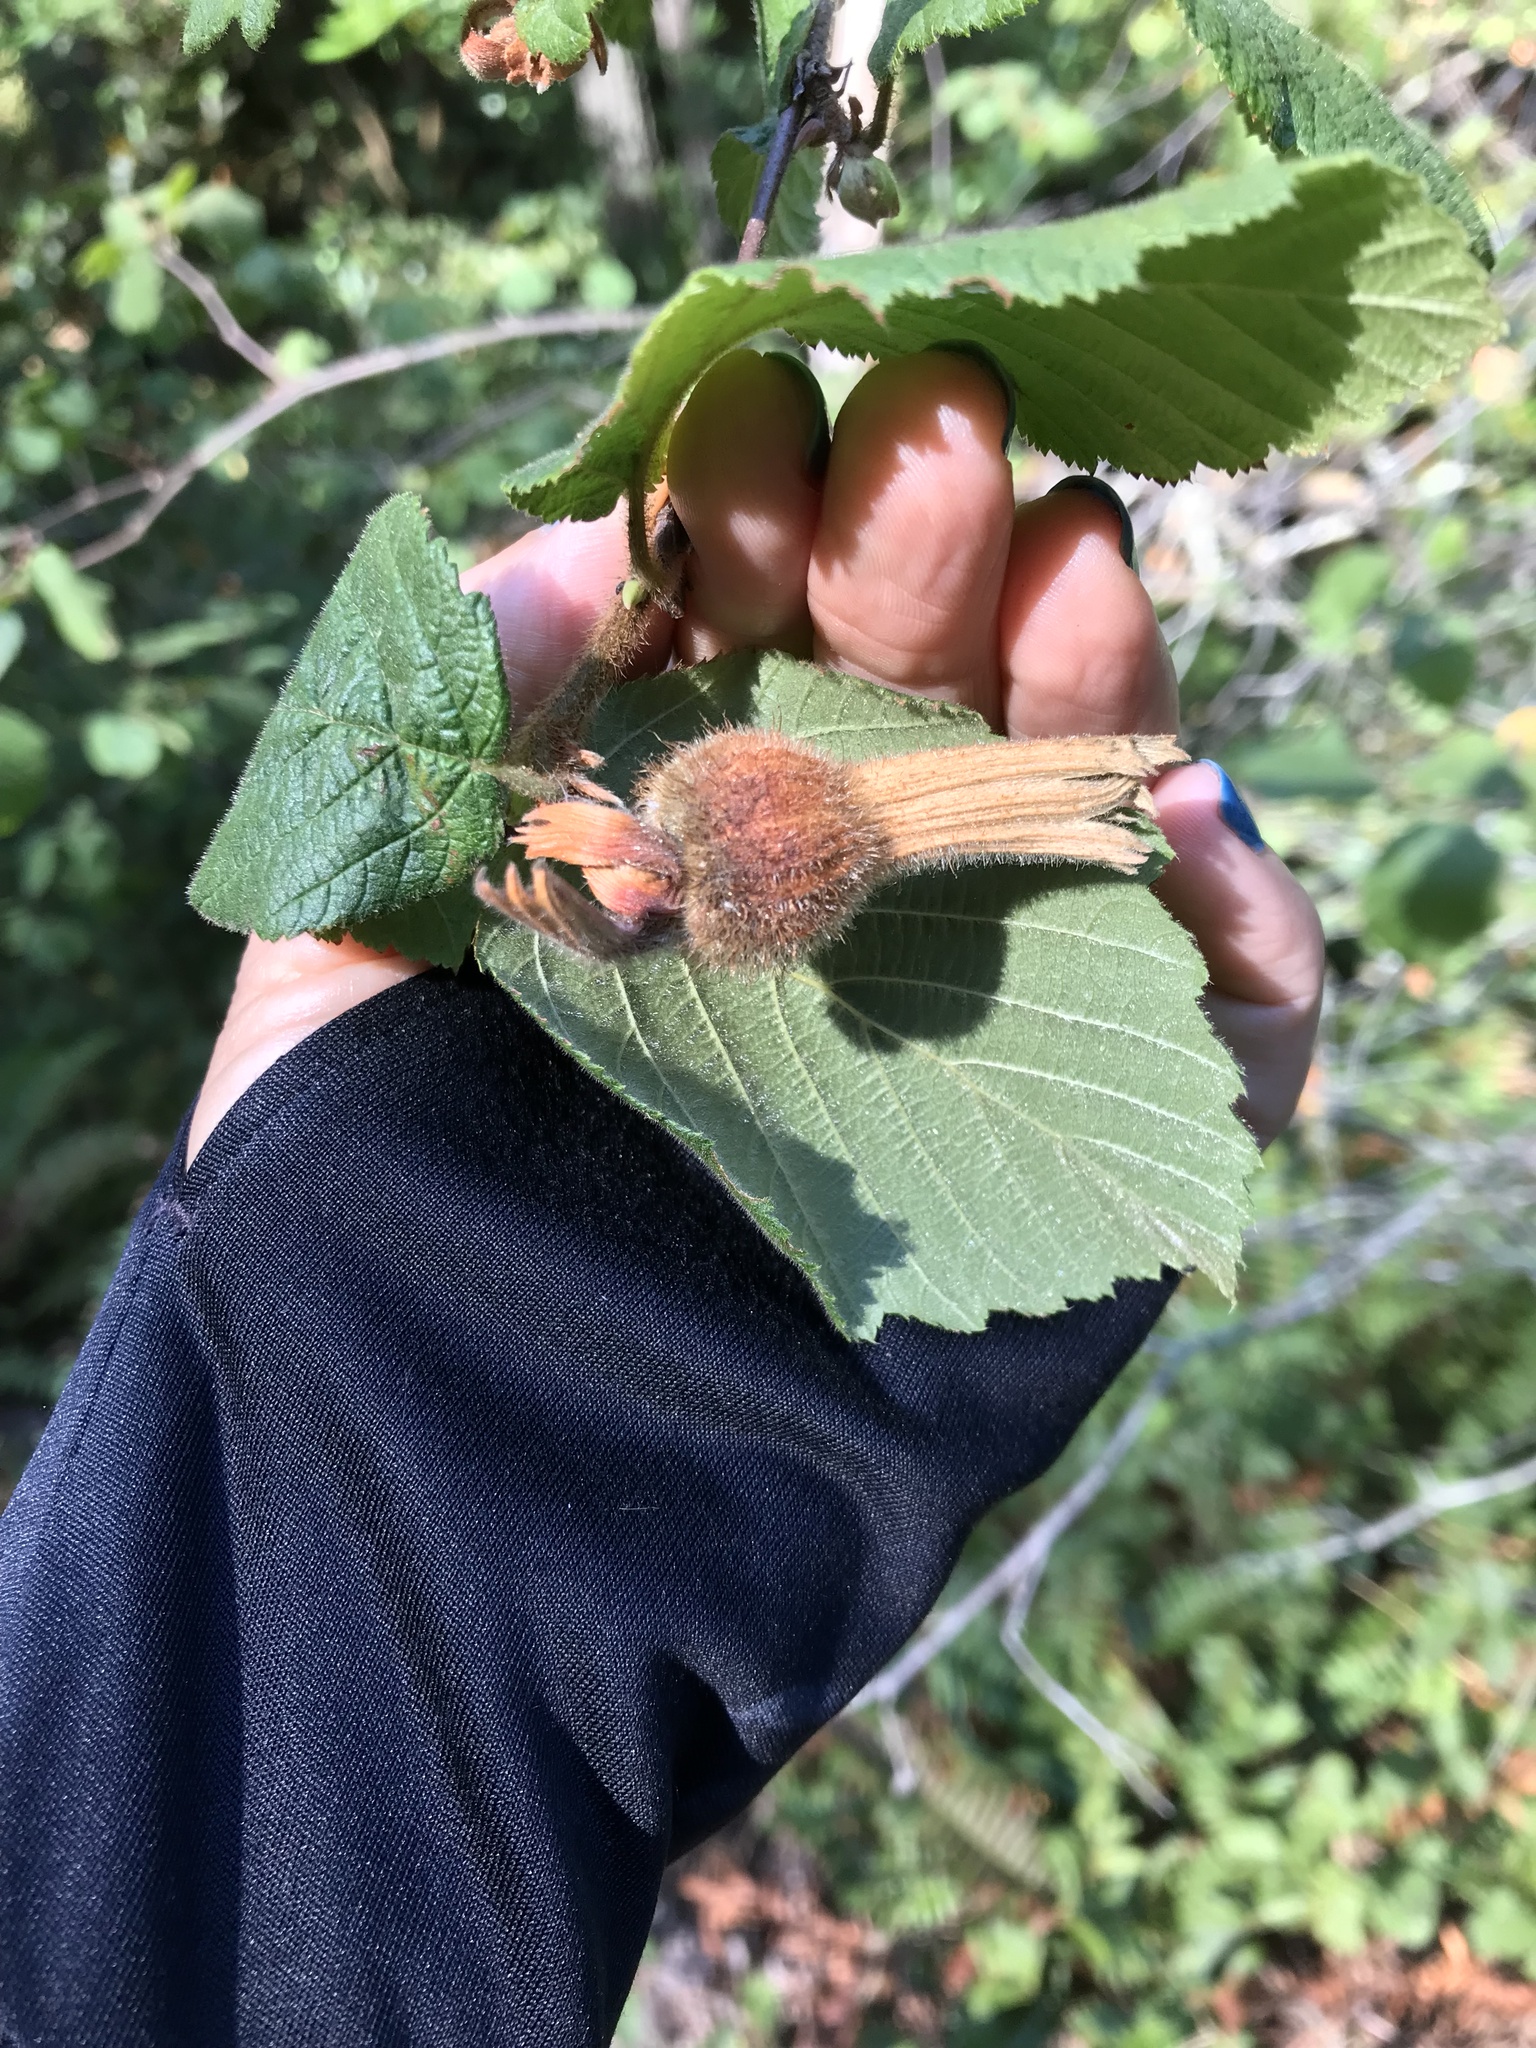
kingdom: Plantae
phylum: Tracheophyta
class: Magnoliopsida
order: Fagales
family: Betulaceae
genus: Corylus
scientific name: Corylus cornuta
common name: Beaked hazel
